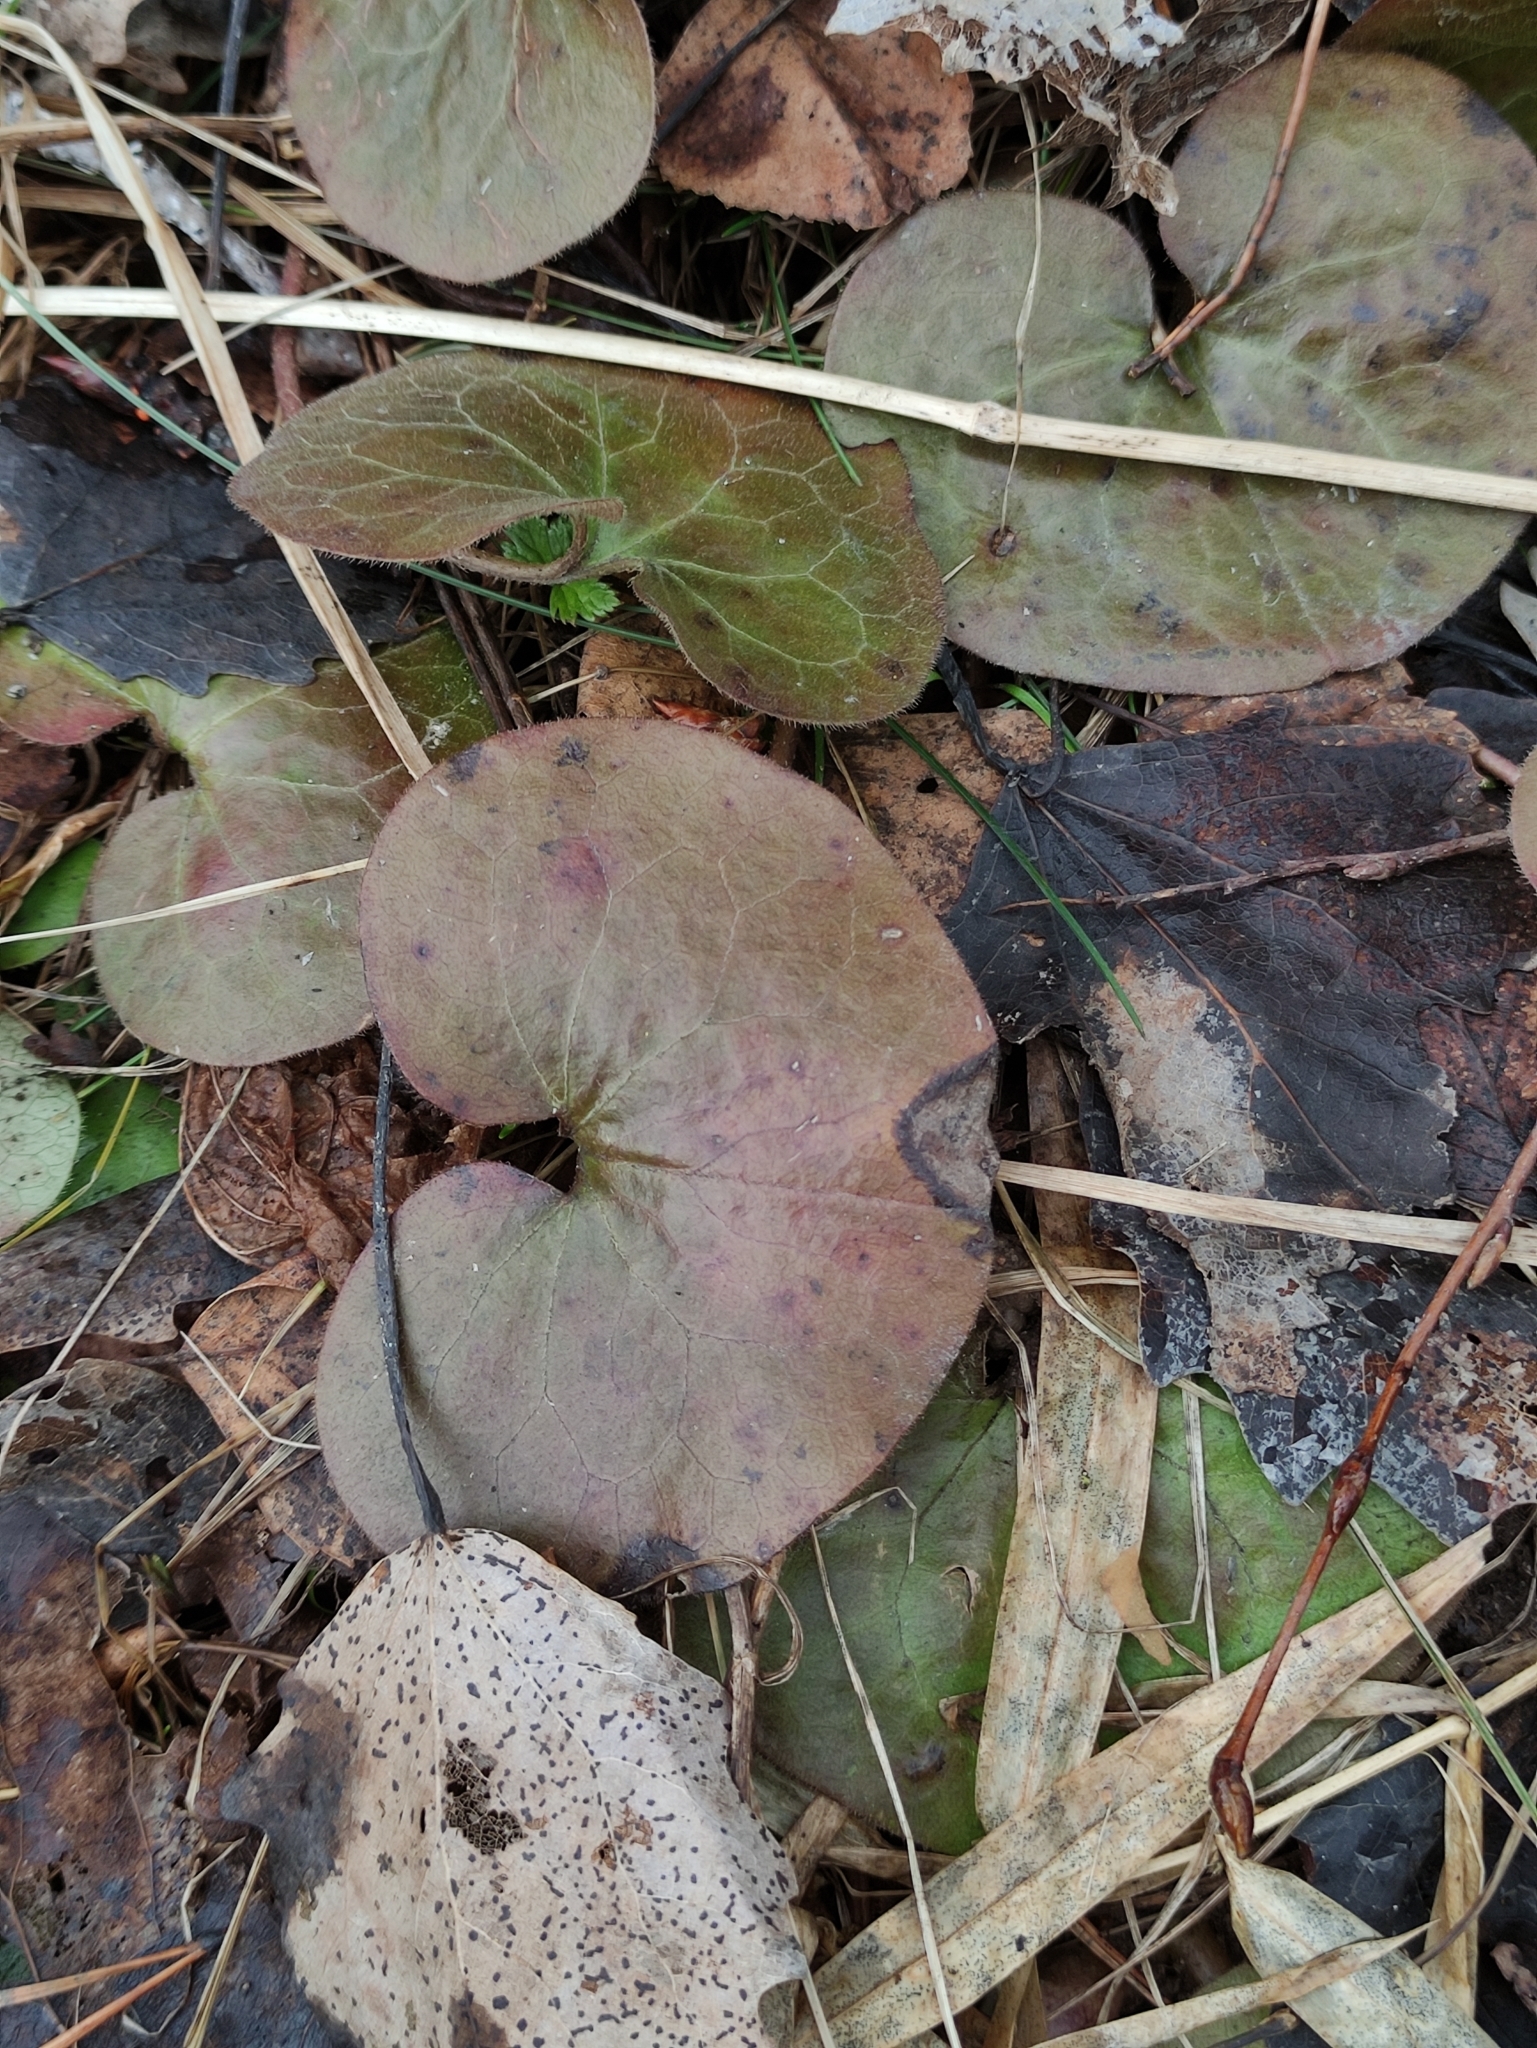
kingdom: Plantae
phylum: Tracheophyta
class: Magnoliopsida
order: Piperales
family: Aristolochiaceae
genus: Asarum
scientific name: Asarum europaeum
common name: Asarabacca
